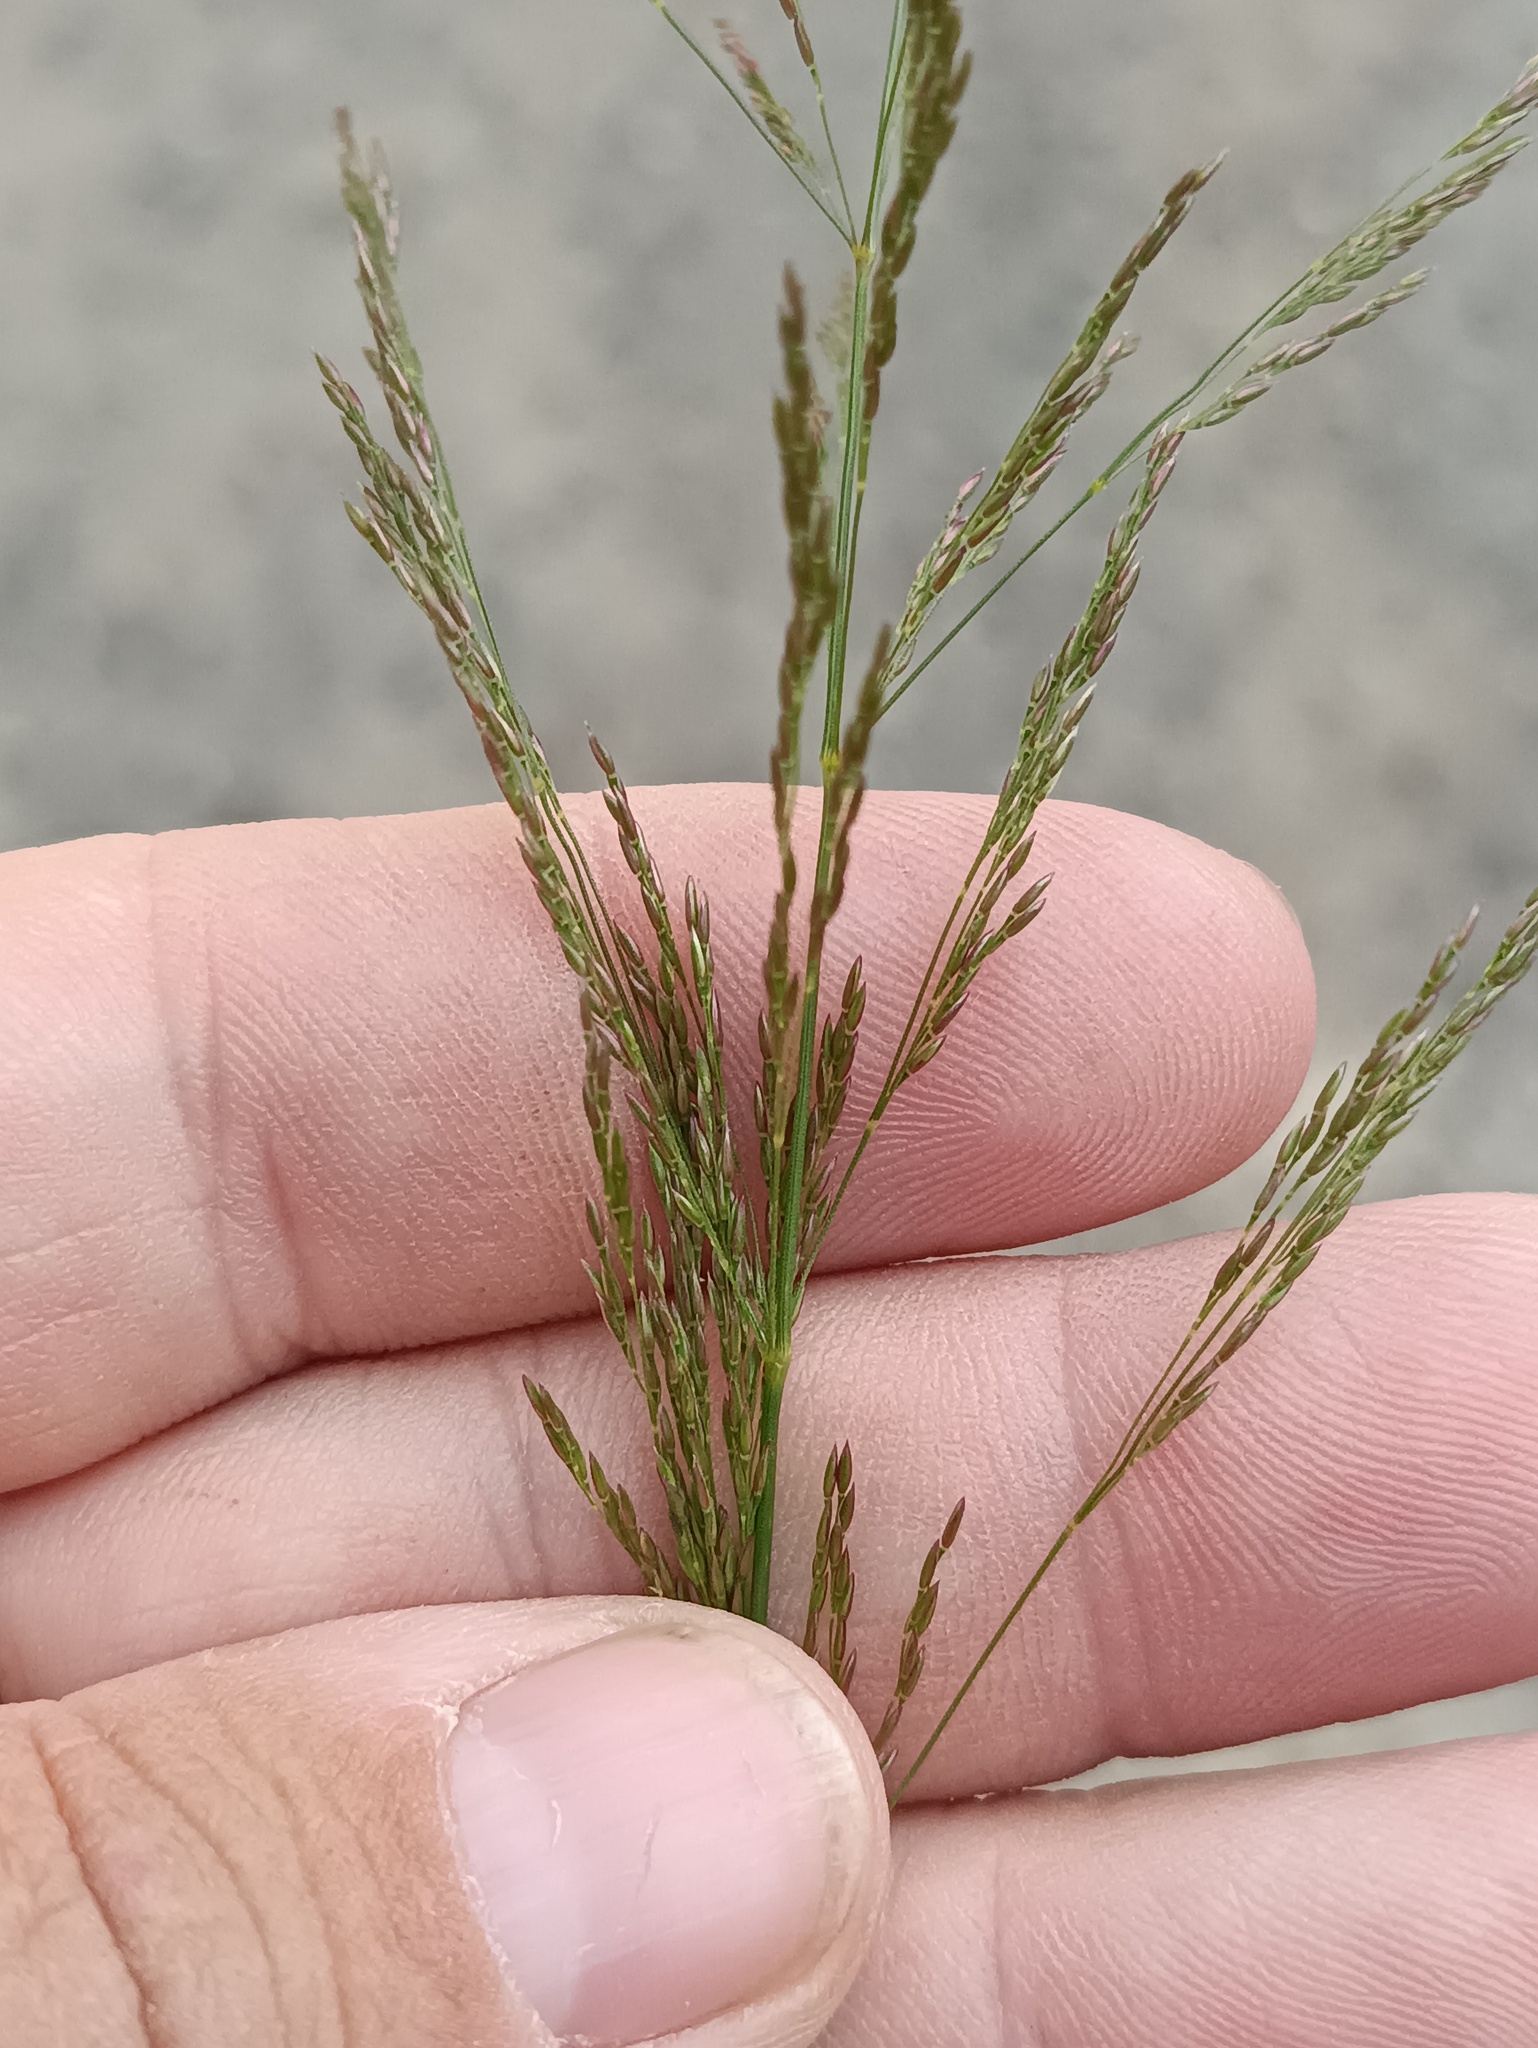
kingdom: Plantae
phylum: Tracheophyta
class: Liliopsida
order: Poales
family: Poaceae
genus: Agrostis
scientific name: Agrostis gigantea
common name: Black bent
